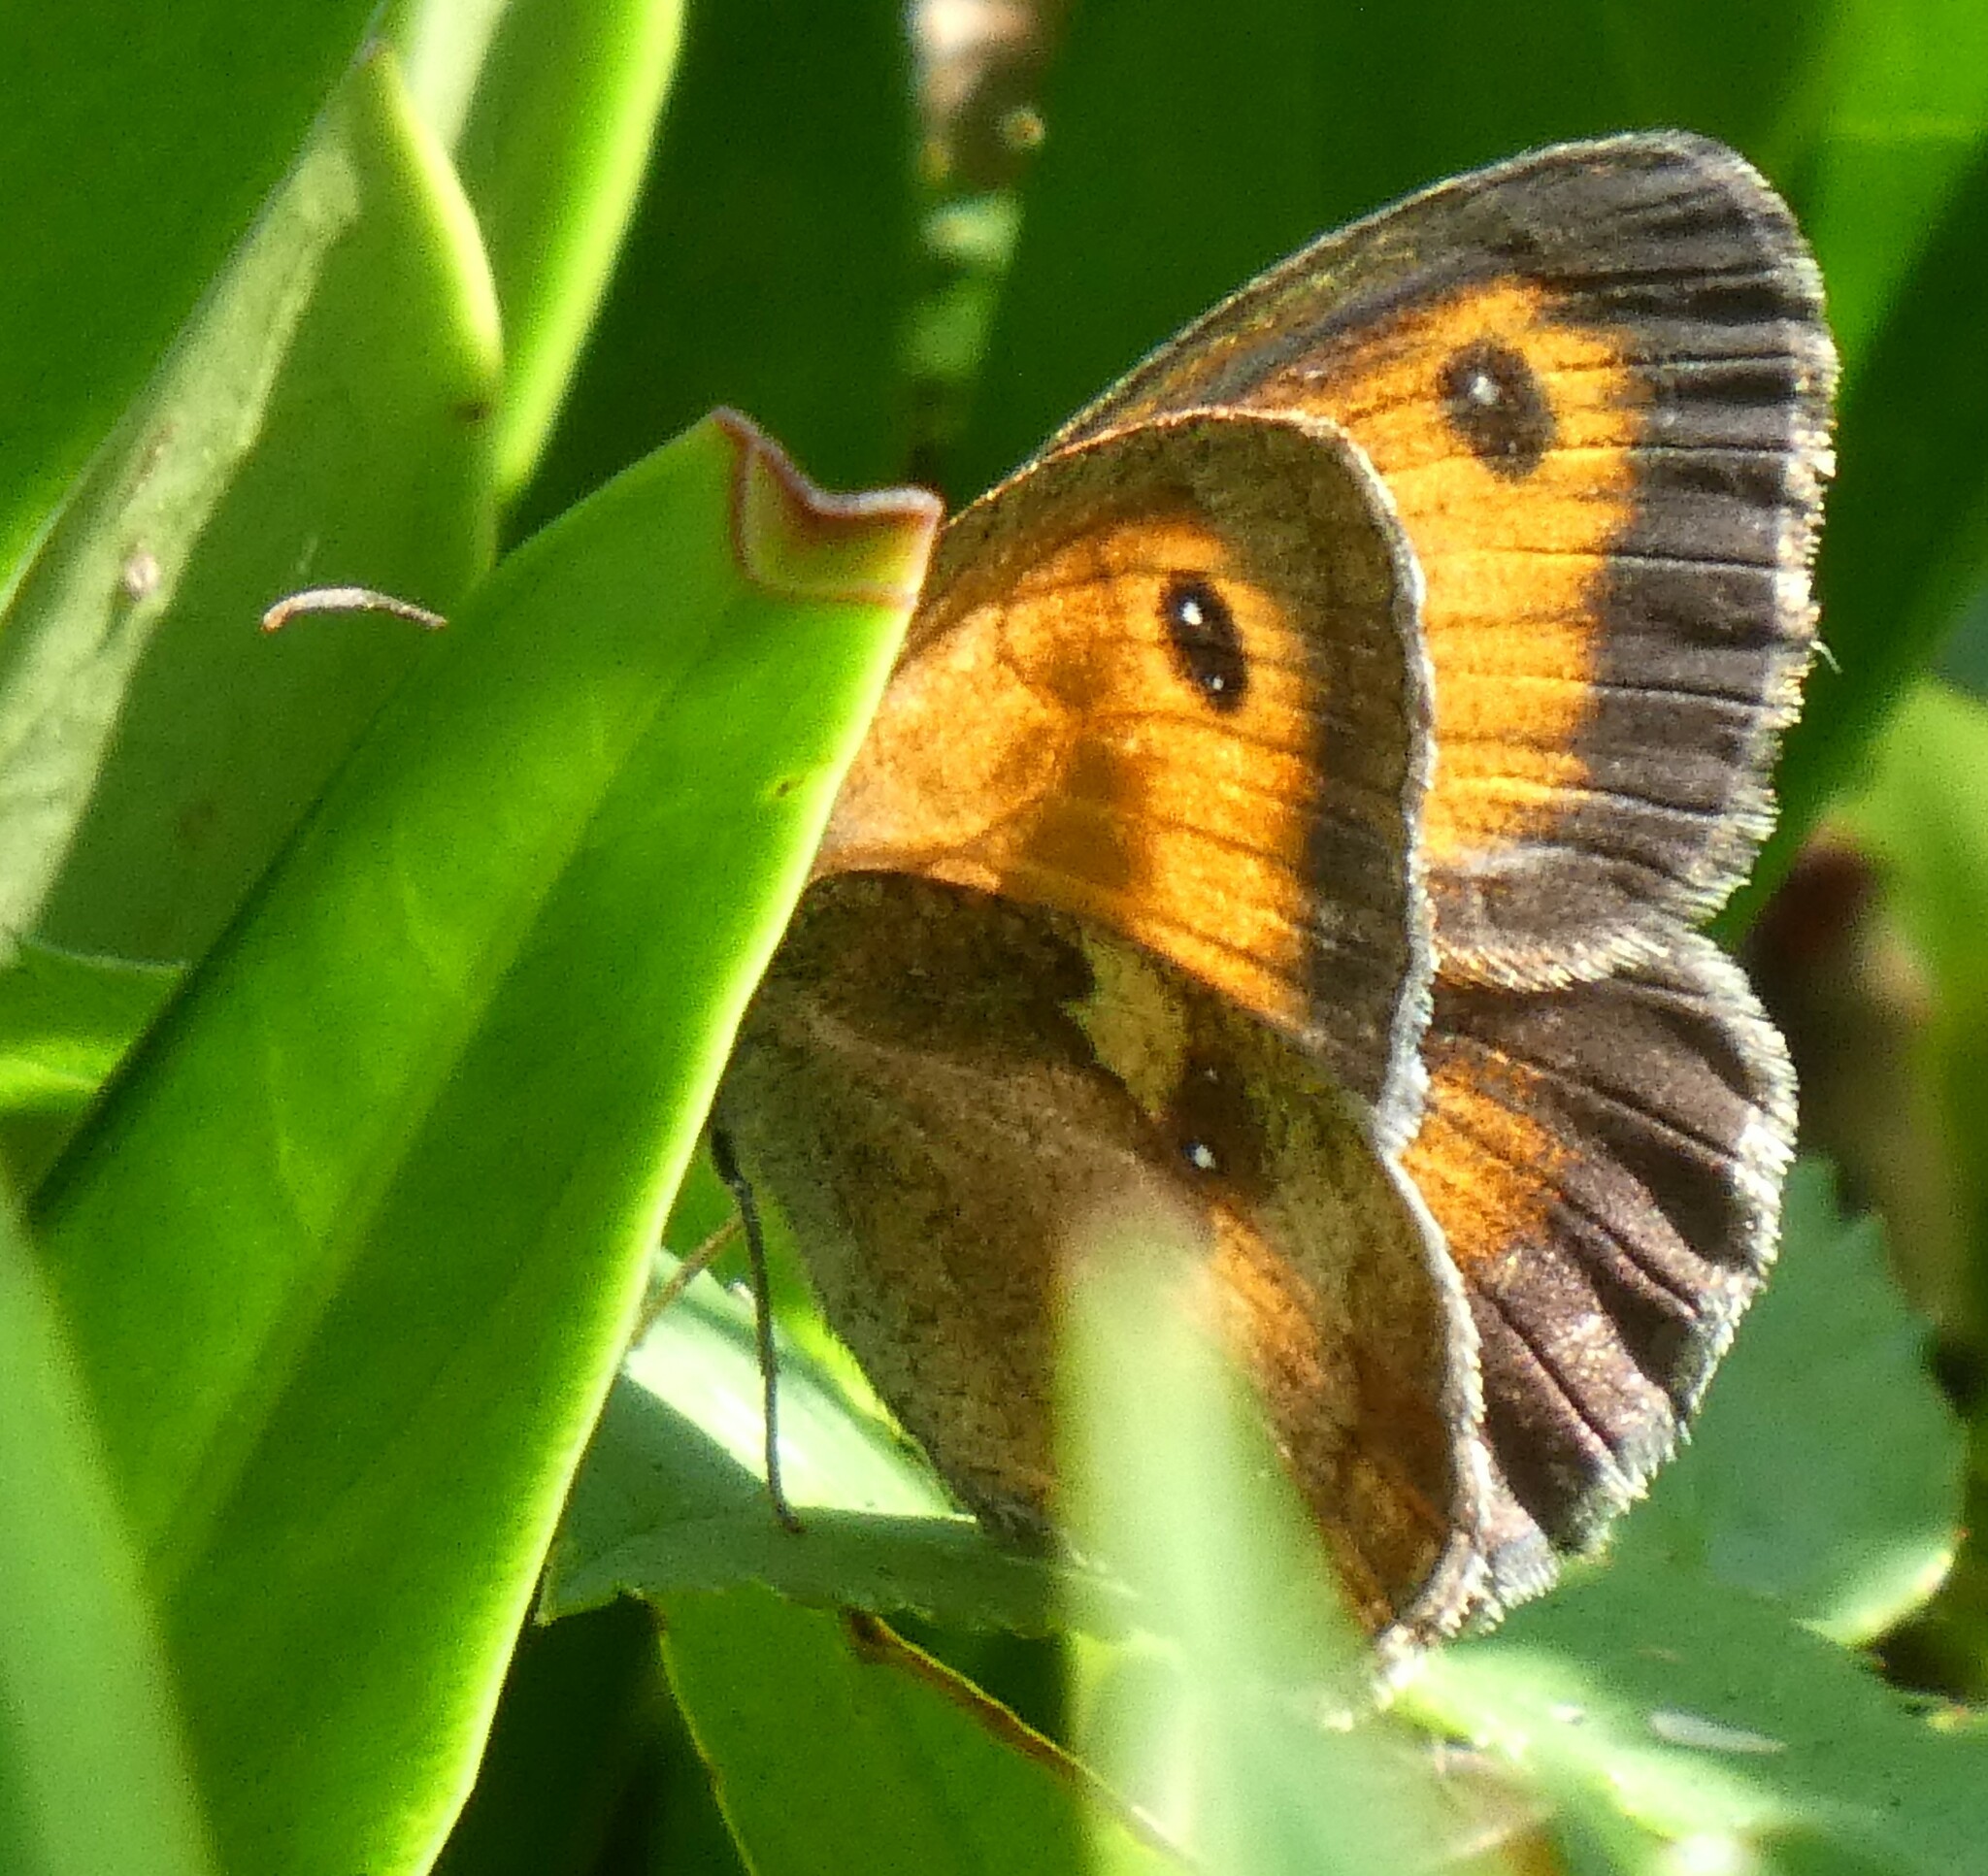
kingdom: Animalia
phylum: Arthropoda
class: Insecta
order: Lepidoptera
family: Nymphalidae
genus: Pyronia
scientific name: Pyronia tithonus
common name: Gatekeeper
